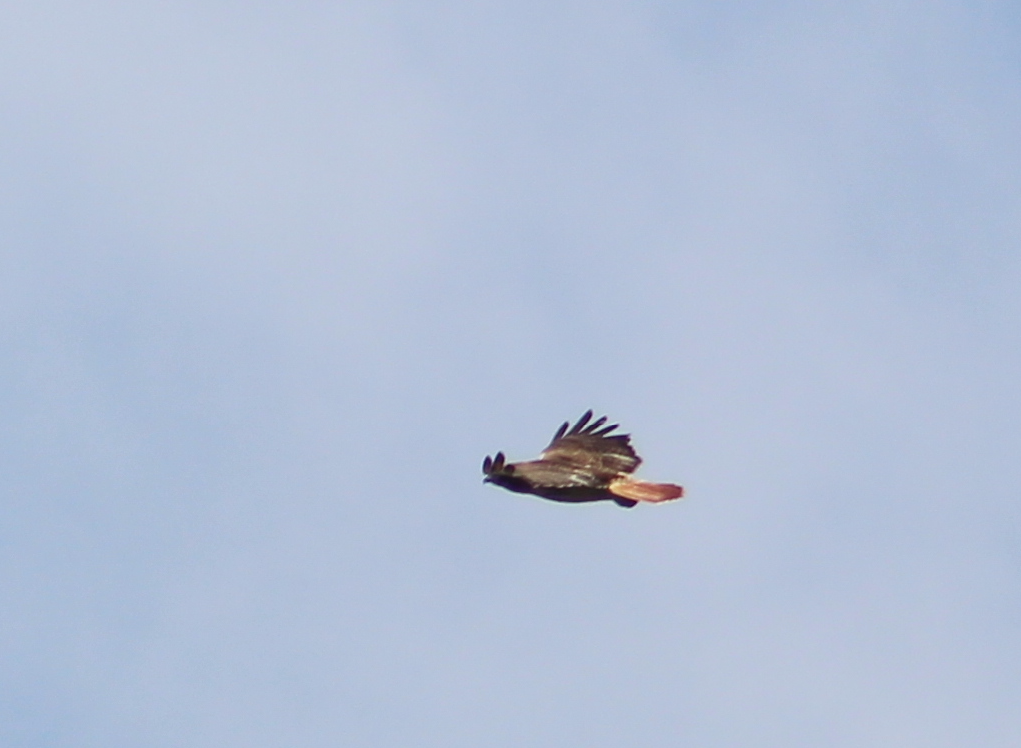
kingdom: Animalia
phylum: Chordata
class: Aves
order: Accipitriformes
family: Accipitridae
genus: Buteo
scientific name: Buteo jamaicensis
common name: Red-tailed hawk
